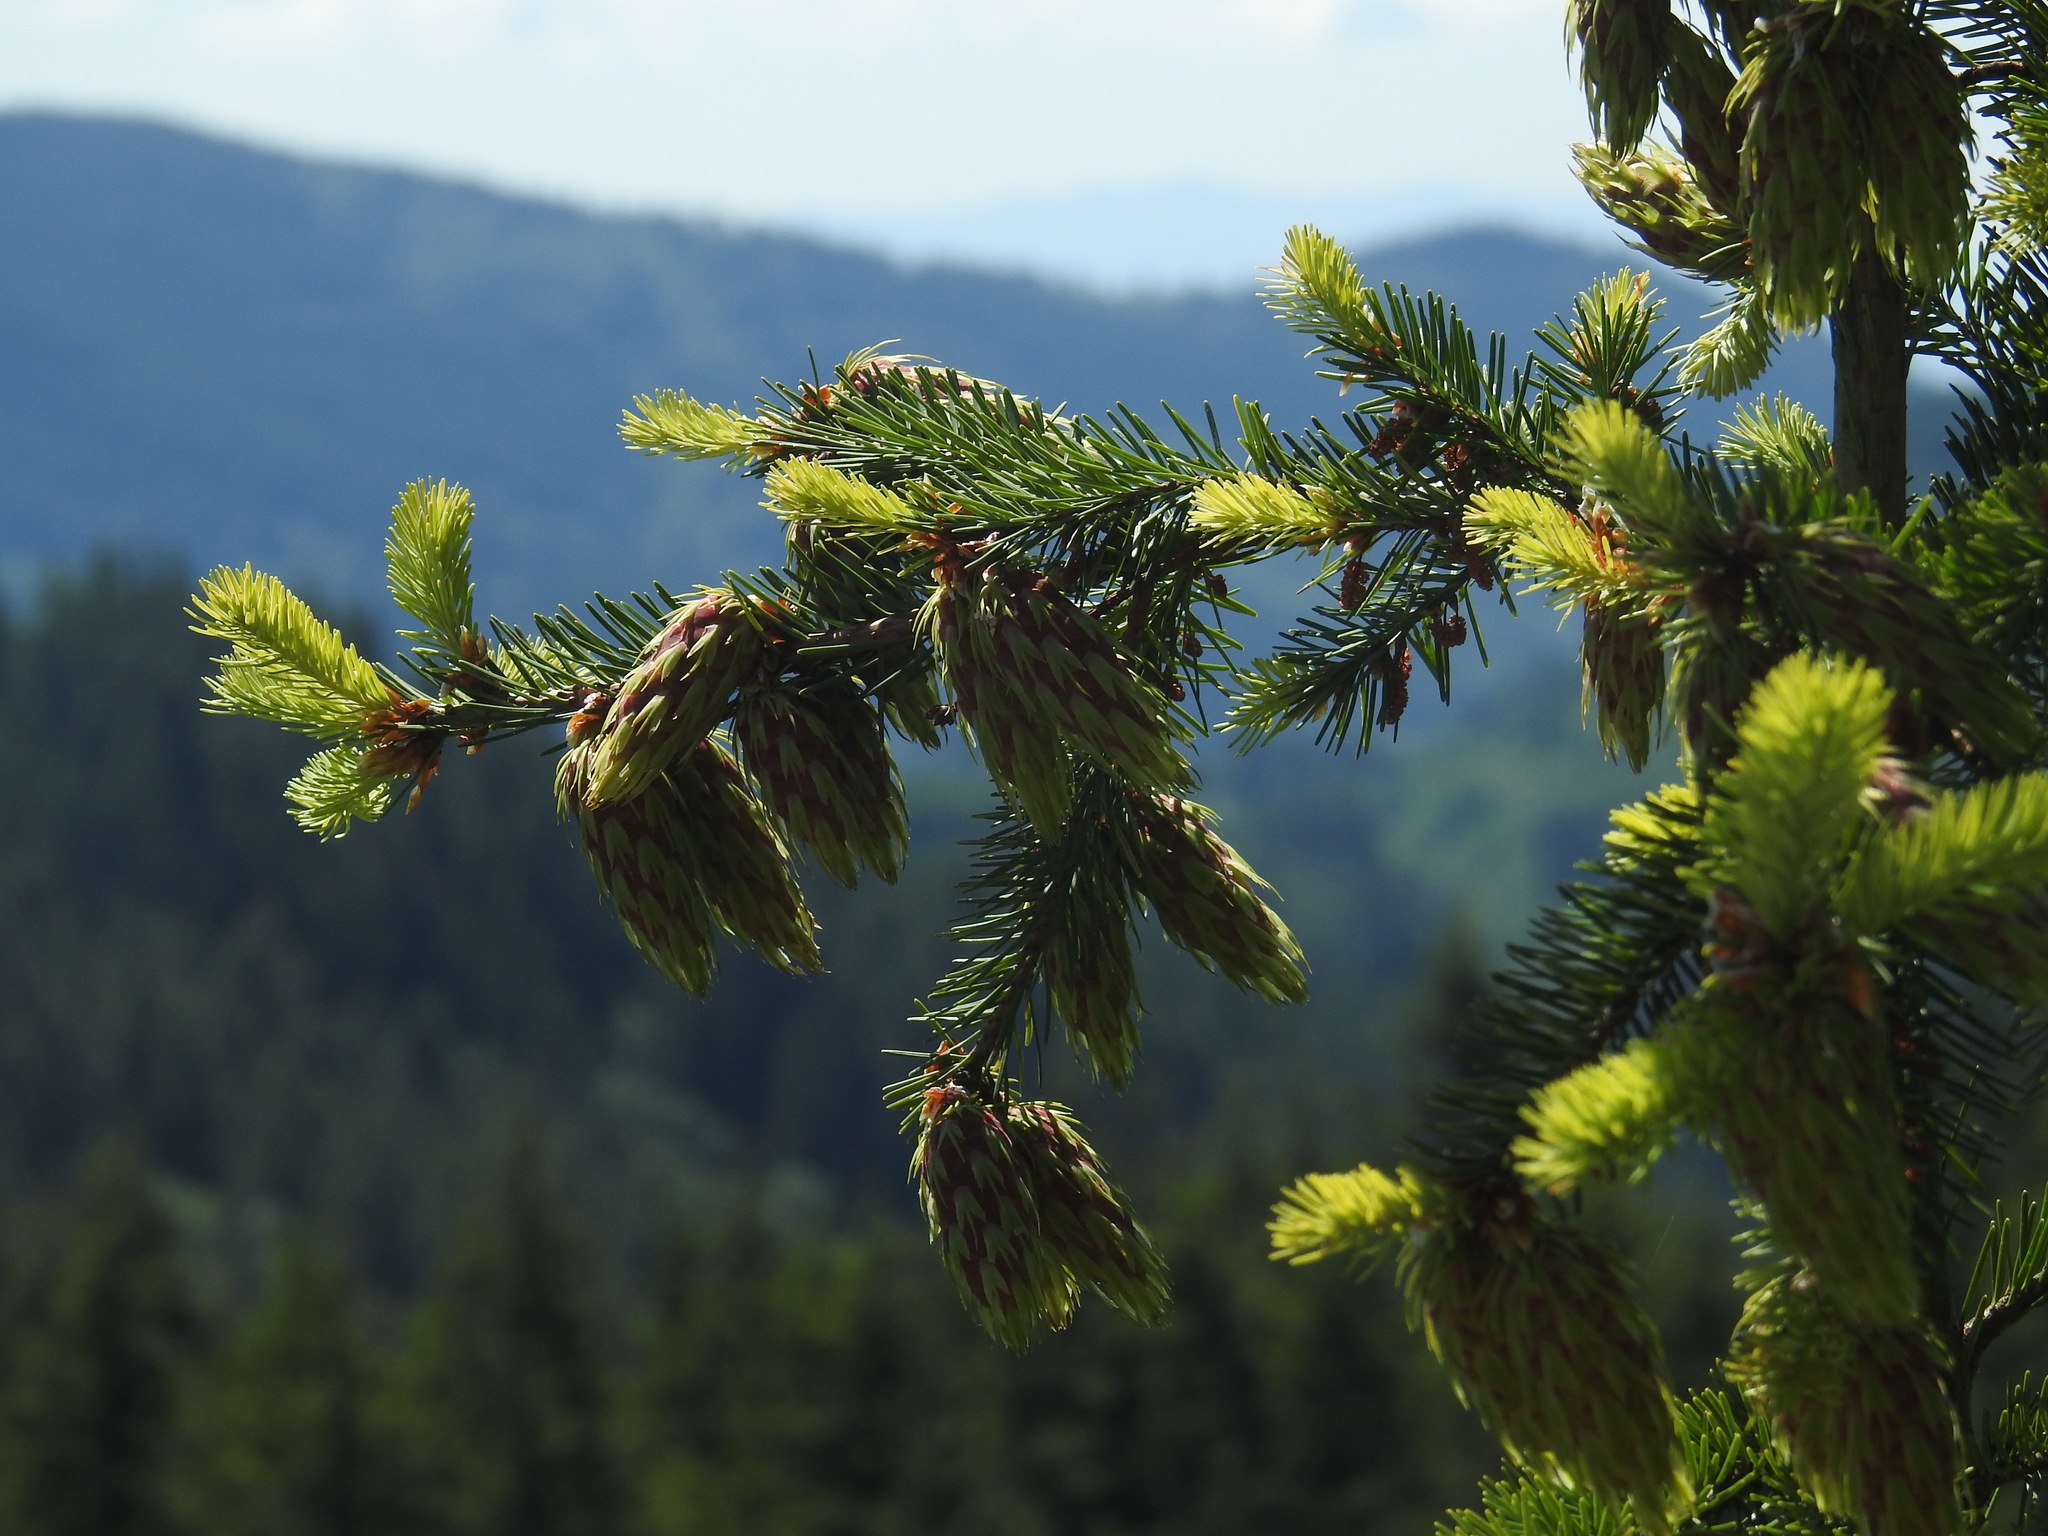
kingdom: Plantae
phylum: Tracheophyta
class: Pinopsida
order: Pinales
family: Pinaceae
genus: Pseudotsuga
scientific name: Pseudotsuga menziesii
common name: Douglas fir
